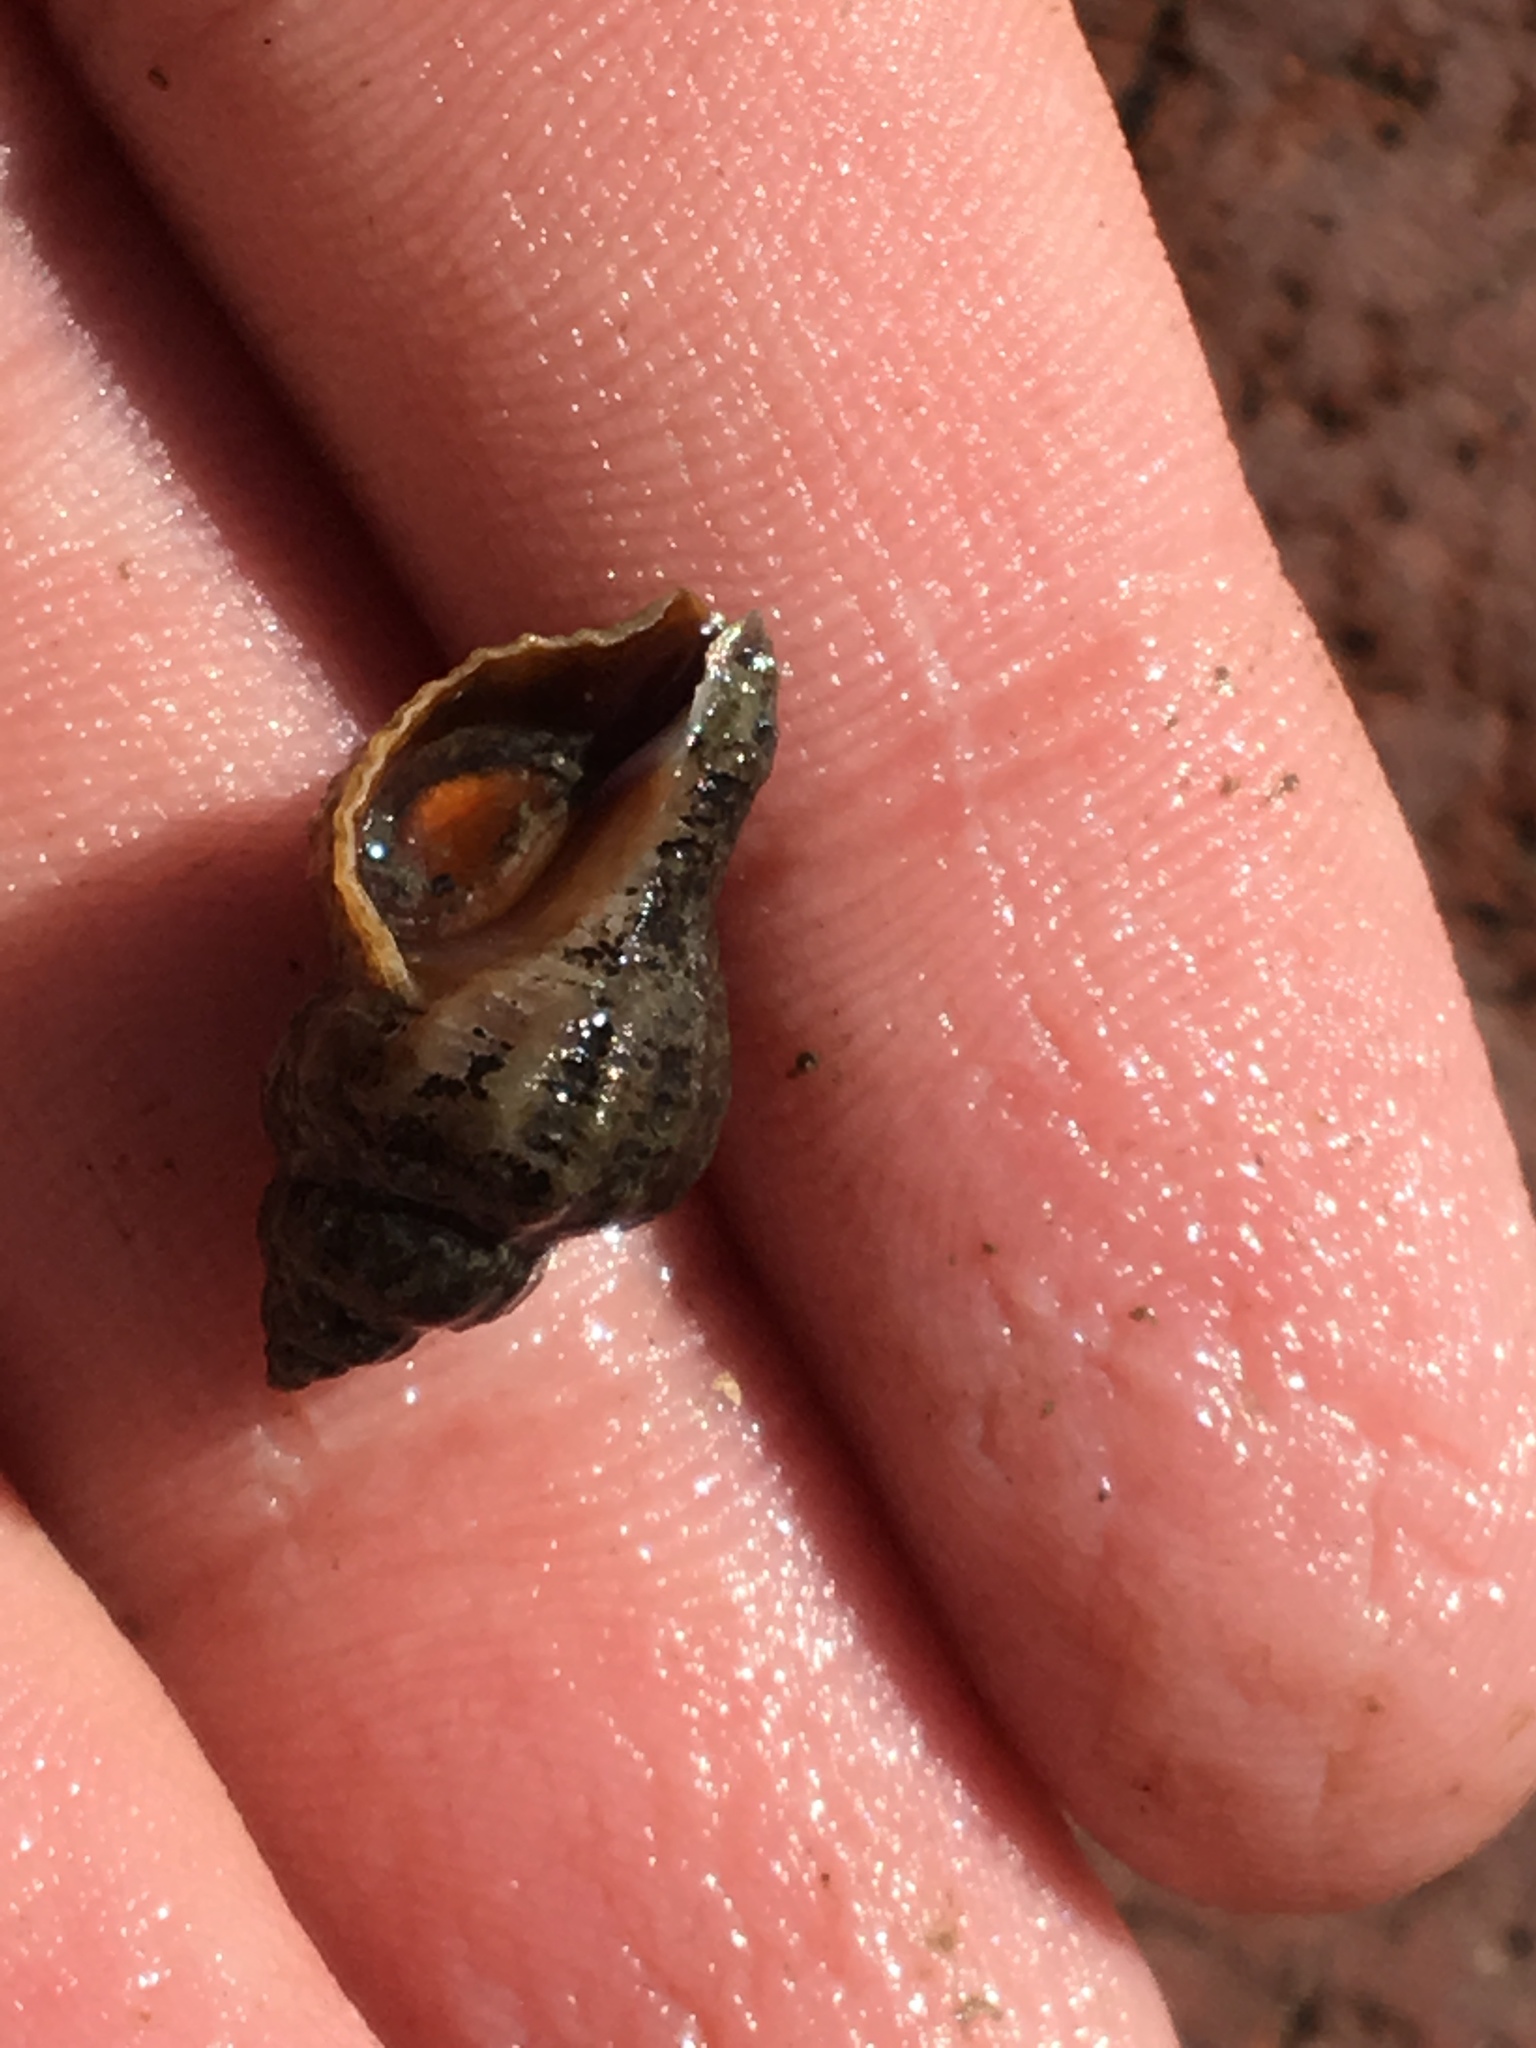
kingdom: Animalia
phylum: Mollusca
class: Gastropoda
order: Neogastropoda
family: Muricidae
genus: Urosalpinx
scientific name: Urosalpinx cinerea
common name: American sting winkle
